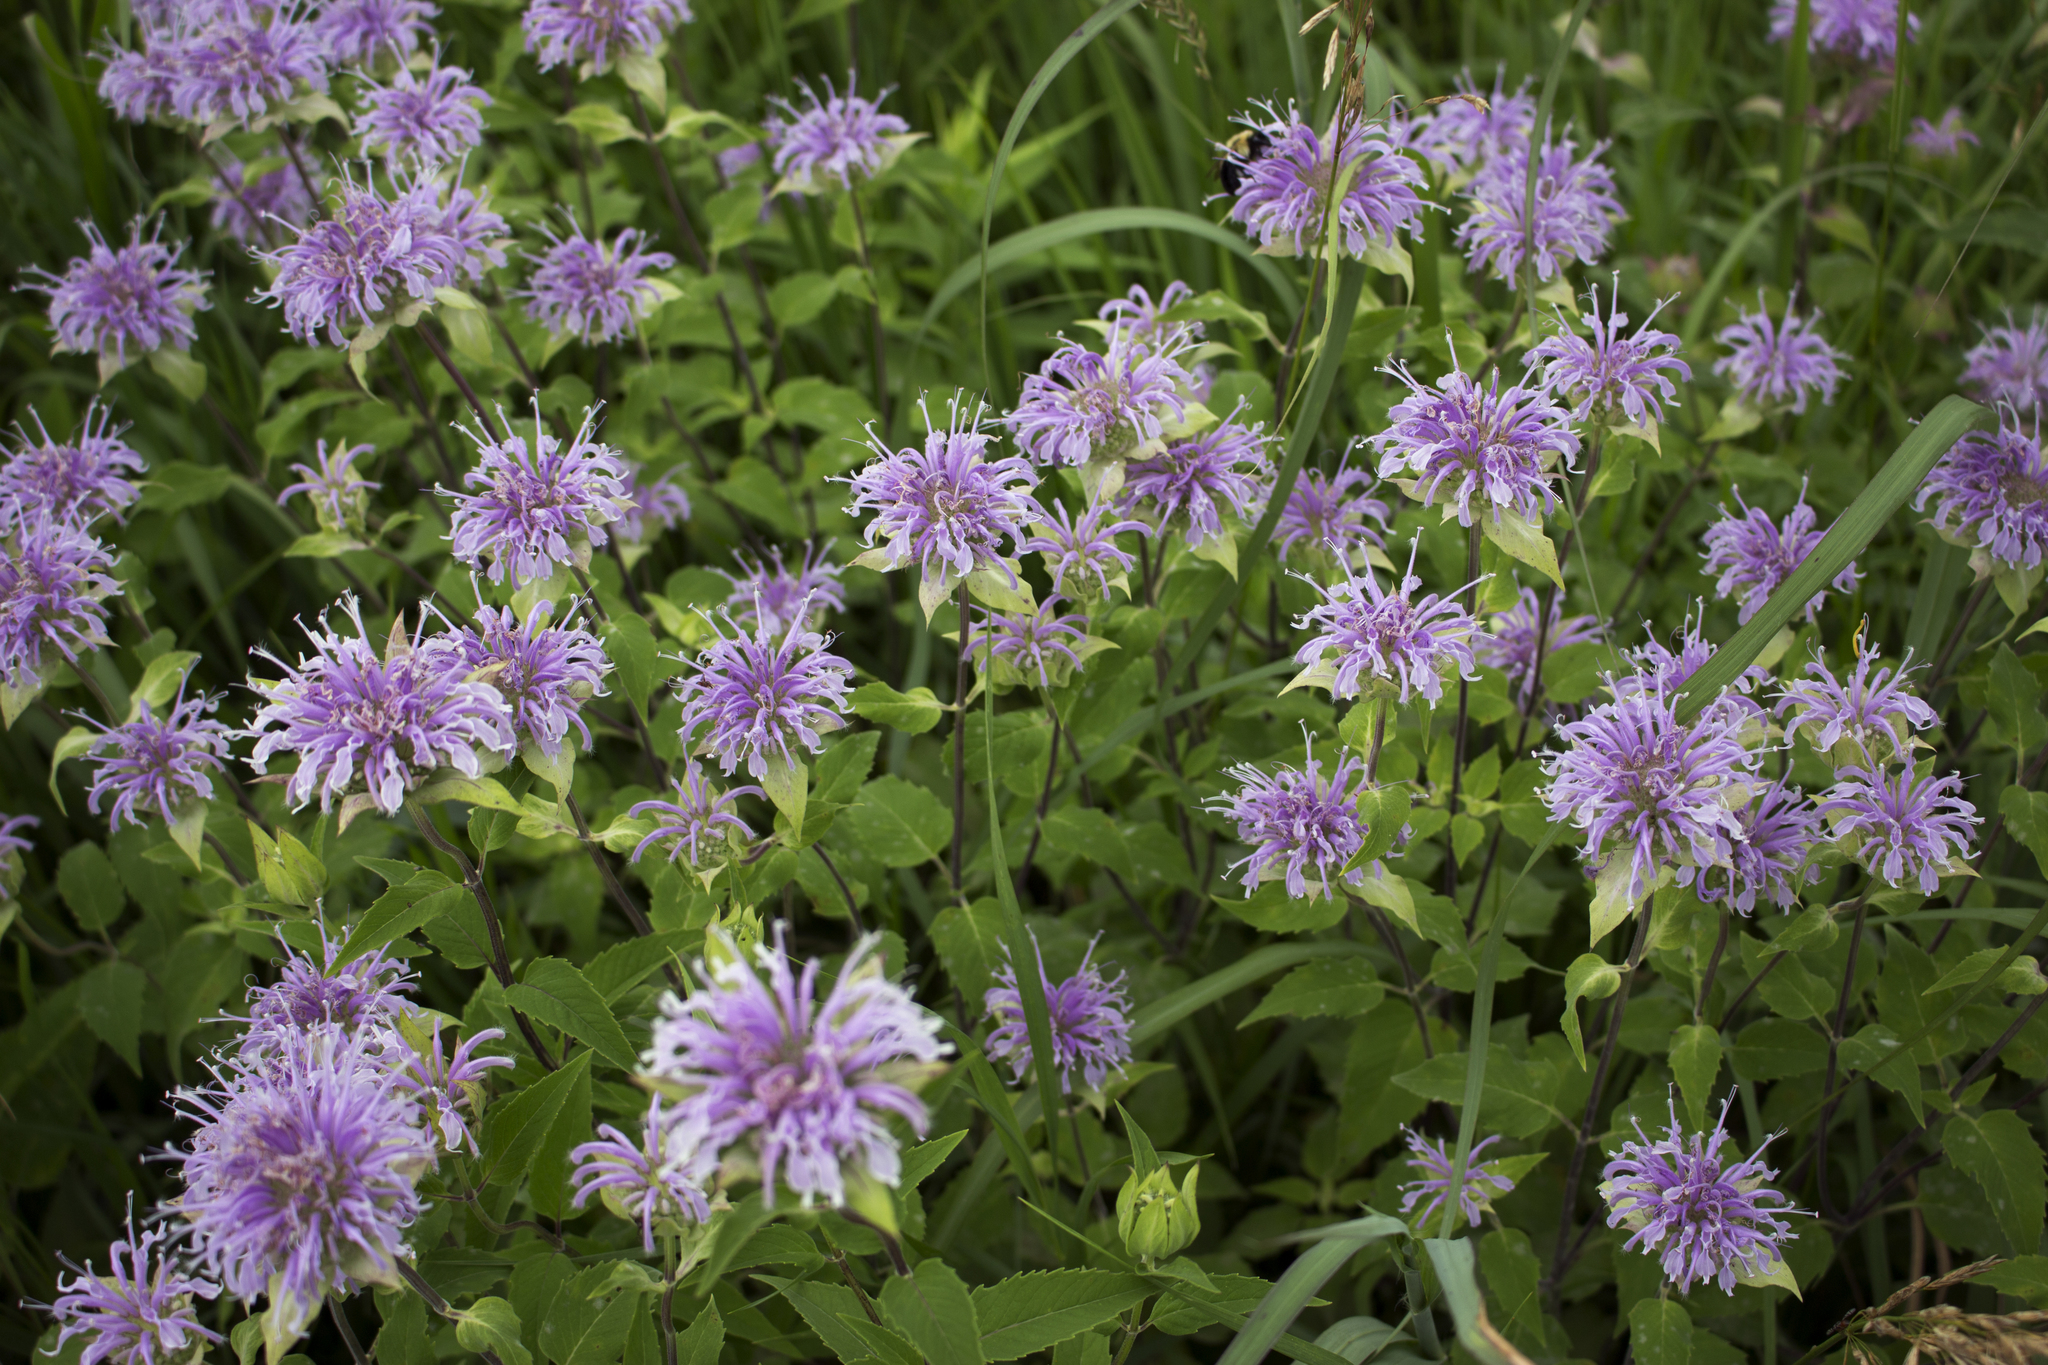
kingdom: Plantae
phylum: Tracheophyta
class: Magnoliopsida
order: Lamiales
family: Lamiaceae
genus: Monarda
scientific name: Monarda fistulosa
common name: Purple beebalm
